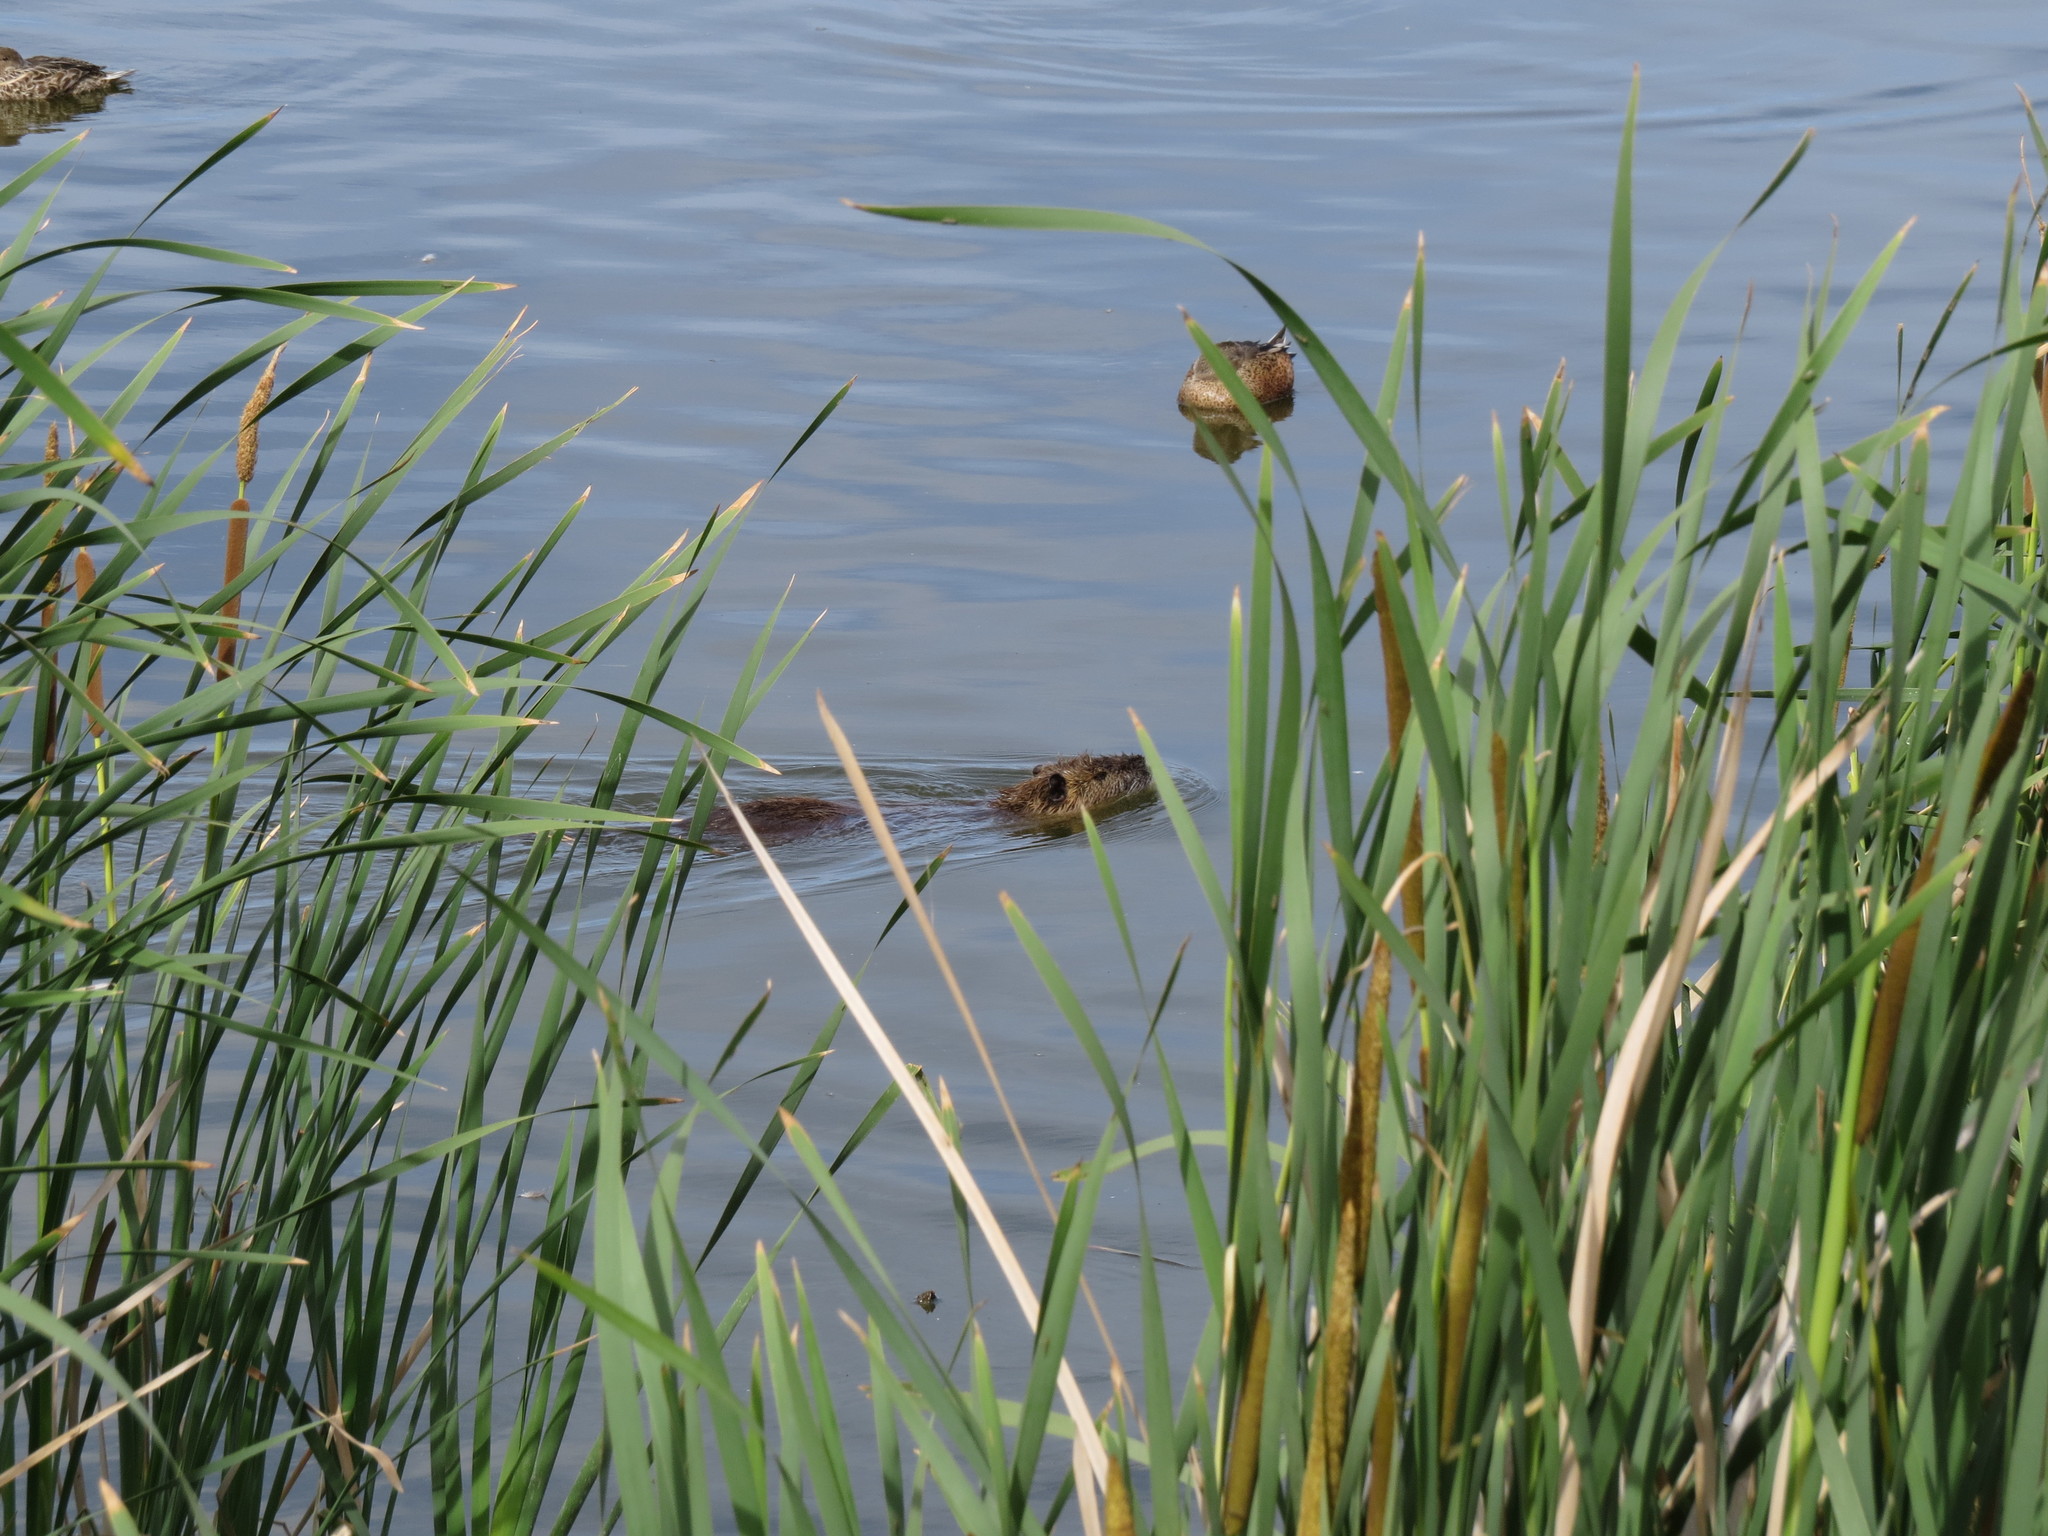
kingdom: Animalia
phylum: Chordata
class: Mammalia
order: Rodentia
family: Myocastoridae
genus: Myocastor
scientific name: Myocastor coypus
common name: Coypu
